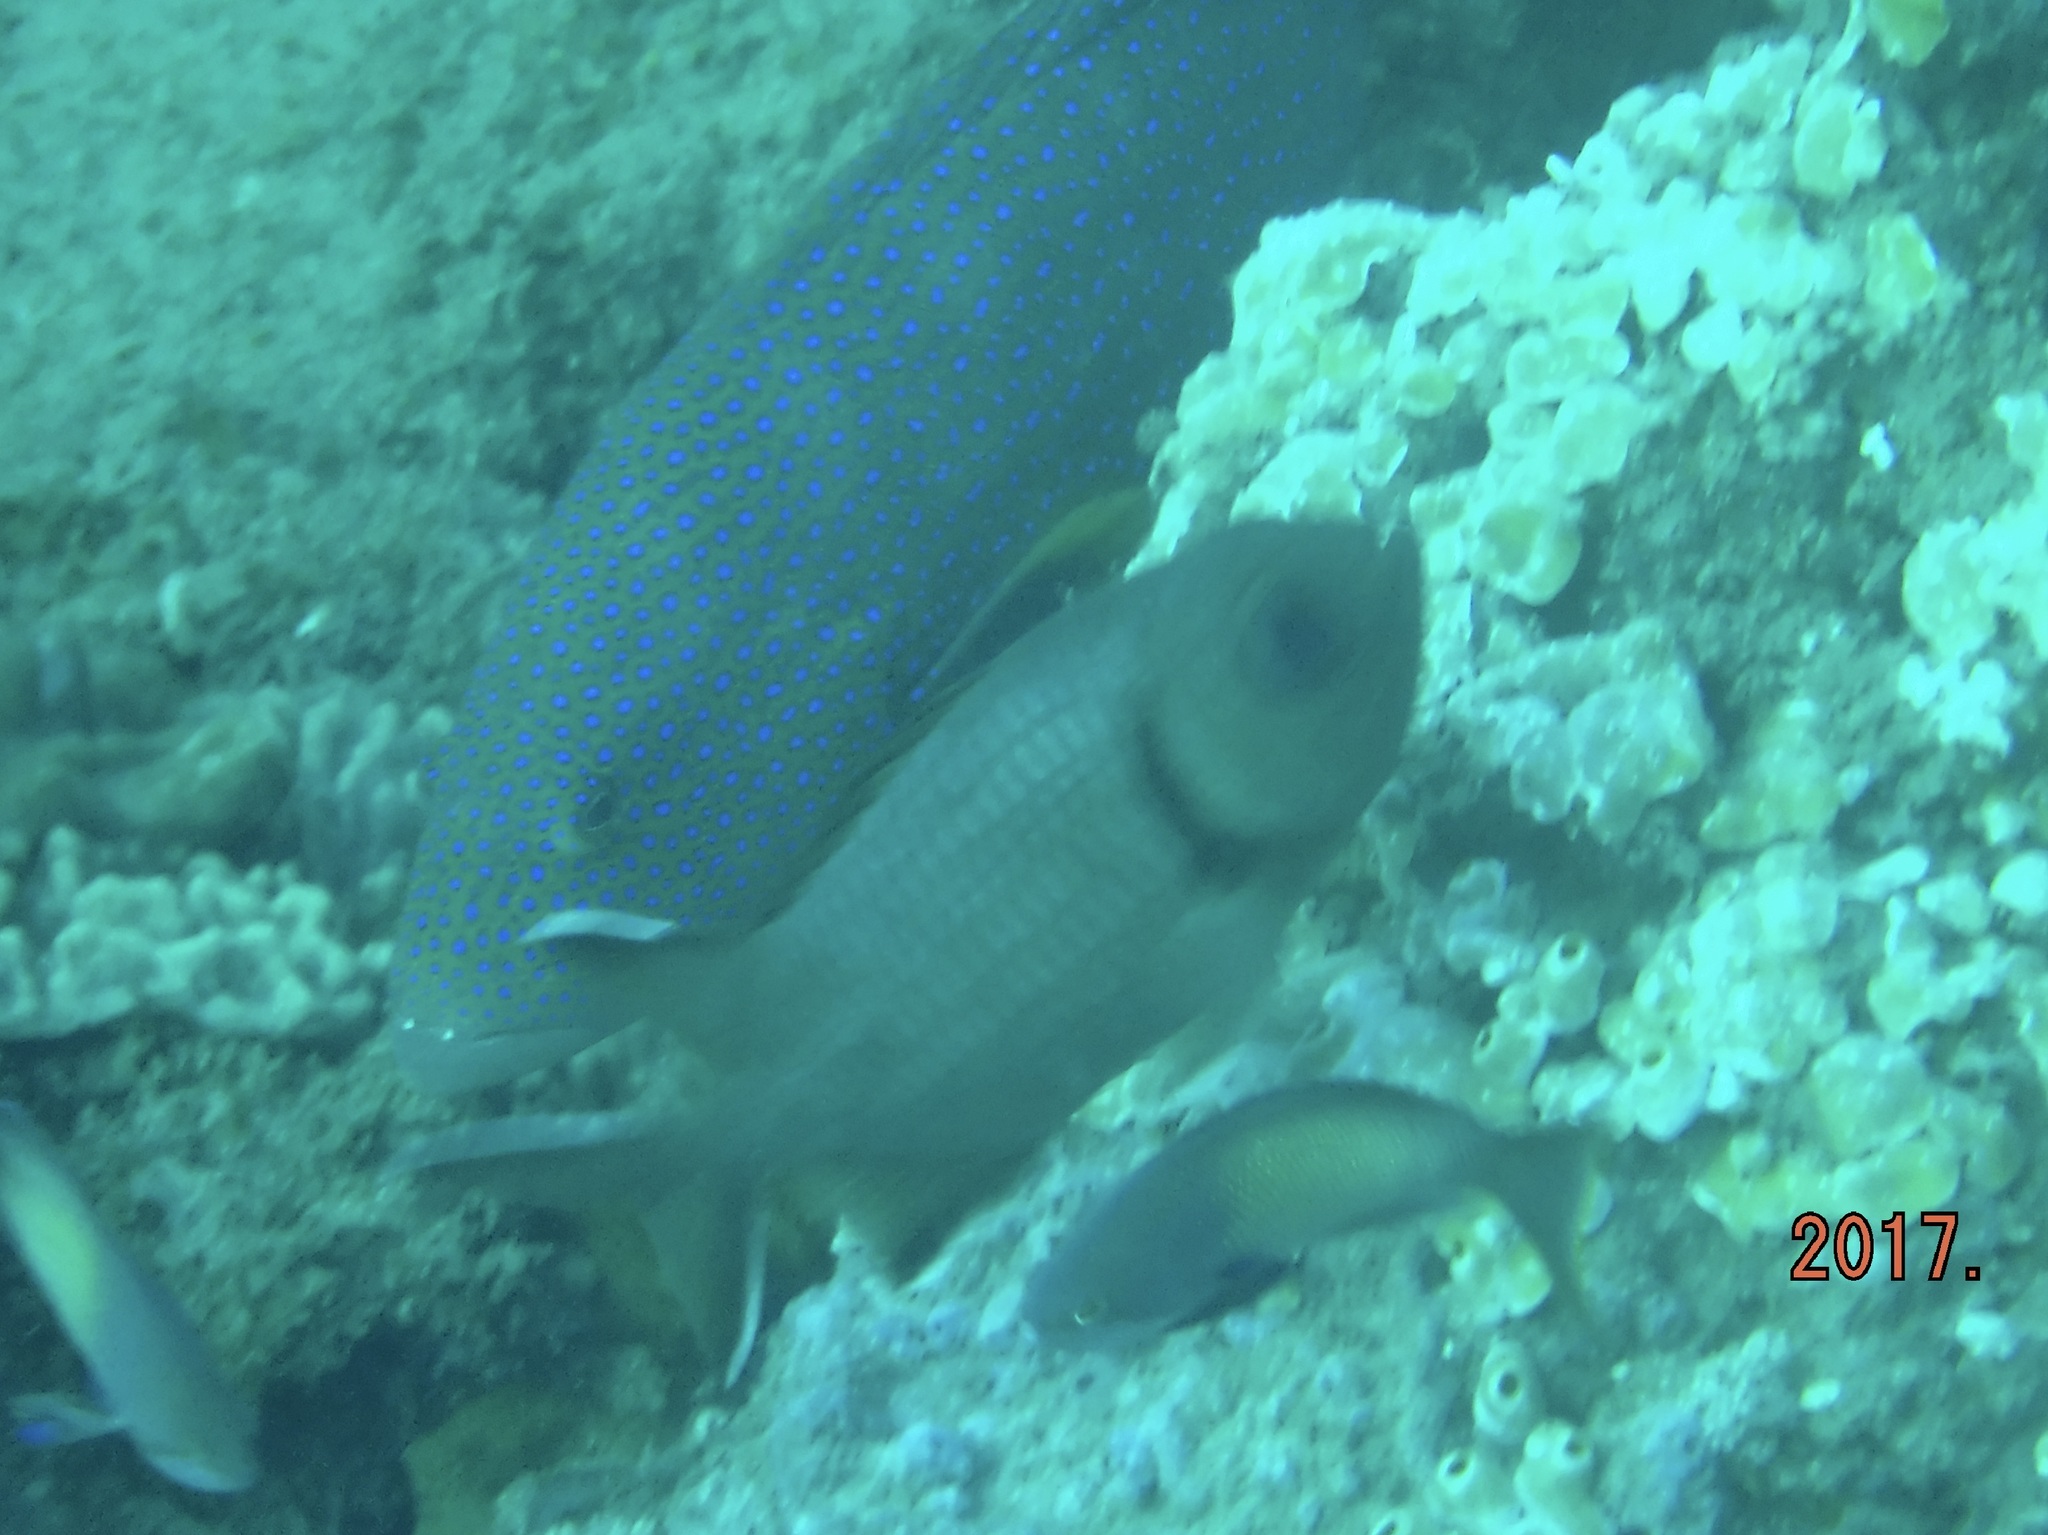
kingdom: Animalia
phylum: Chordata
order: Beryciformes
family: Holocentridae
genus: Myripristis
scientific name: Myripristis murdjan
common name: Big-eye soldierfish
